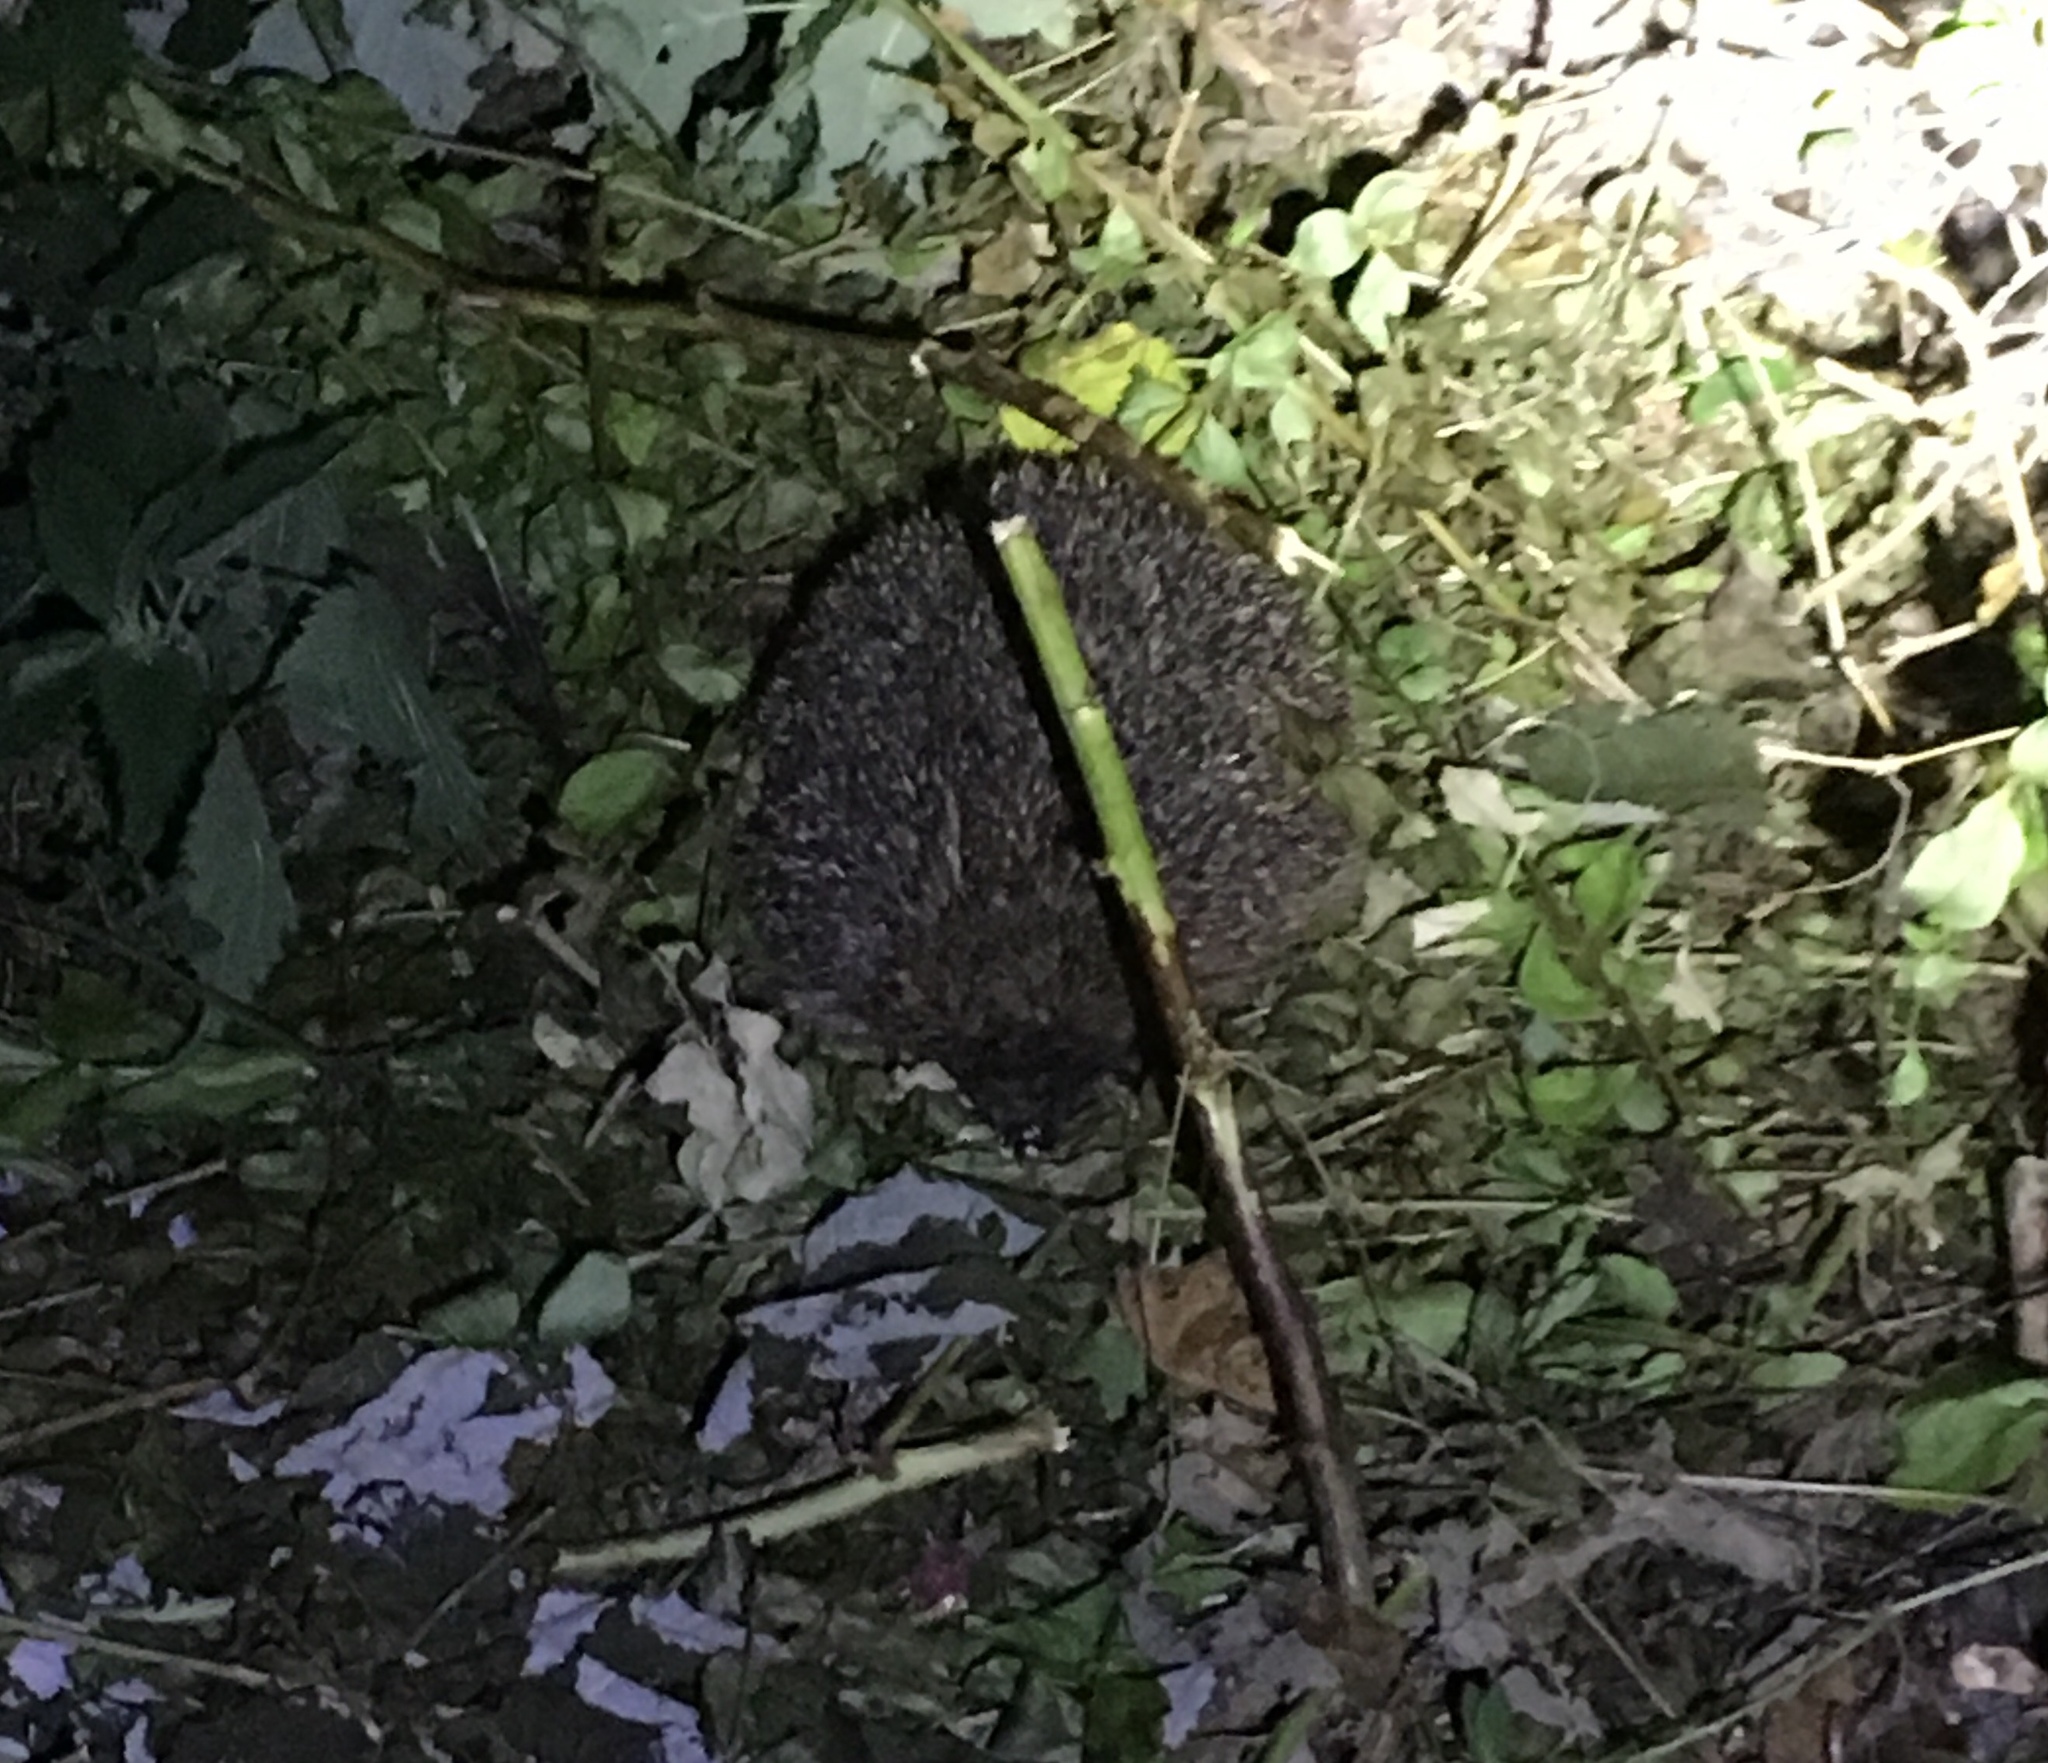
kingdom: Animalia
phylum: Chordata
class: Mammalia
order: Erinaceomorpha
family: Erinaceidae
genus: Erinaceus
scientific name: Erinaceus europaeus
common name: West european hedgehog
